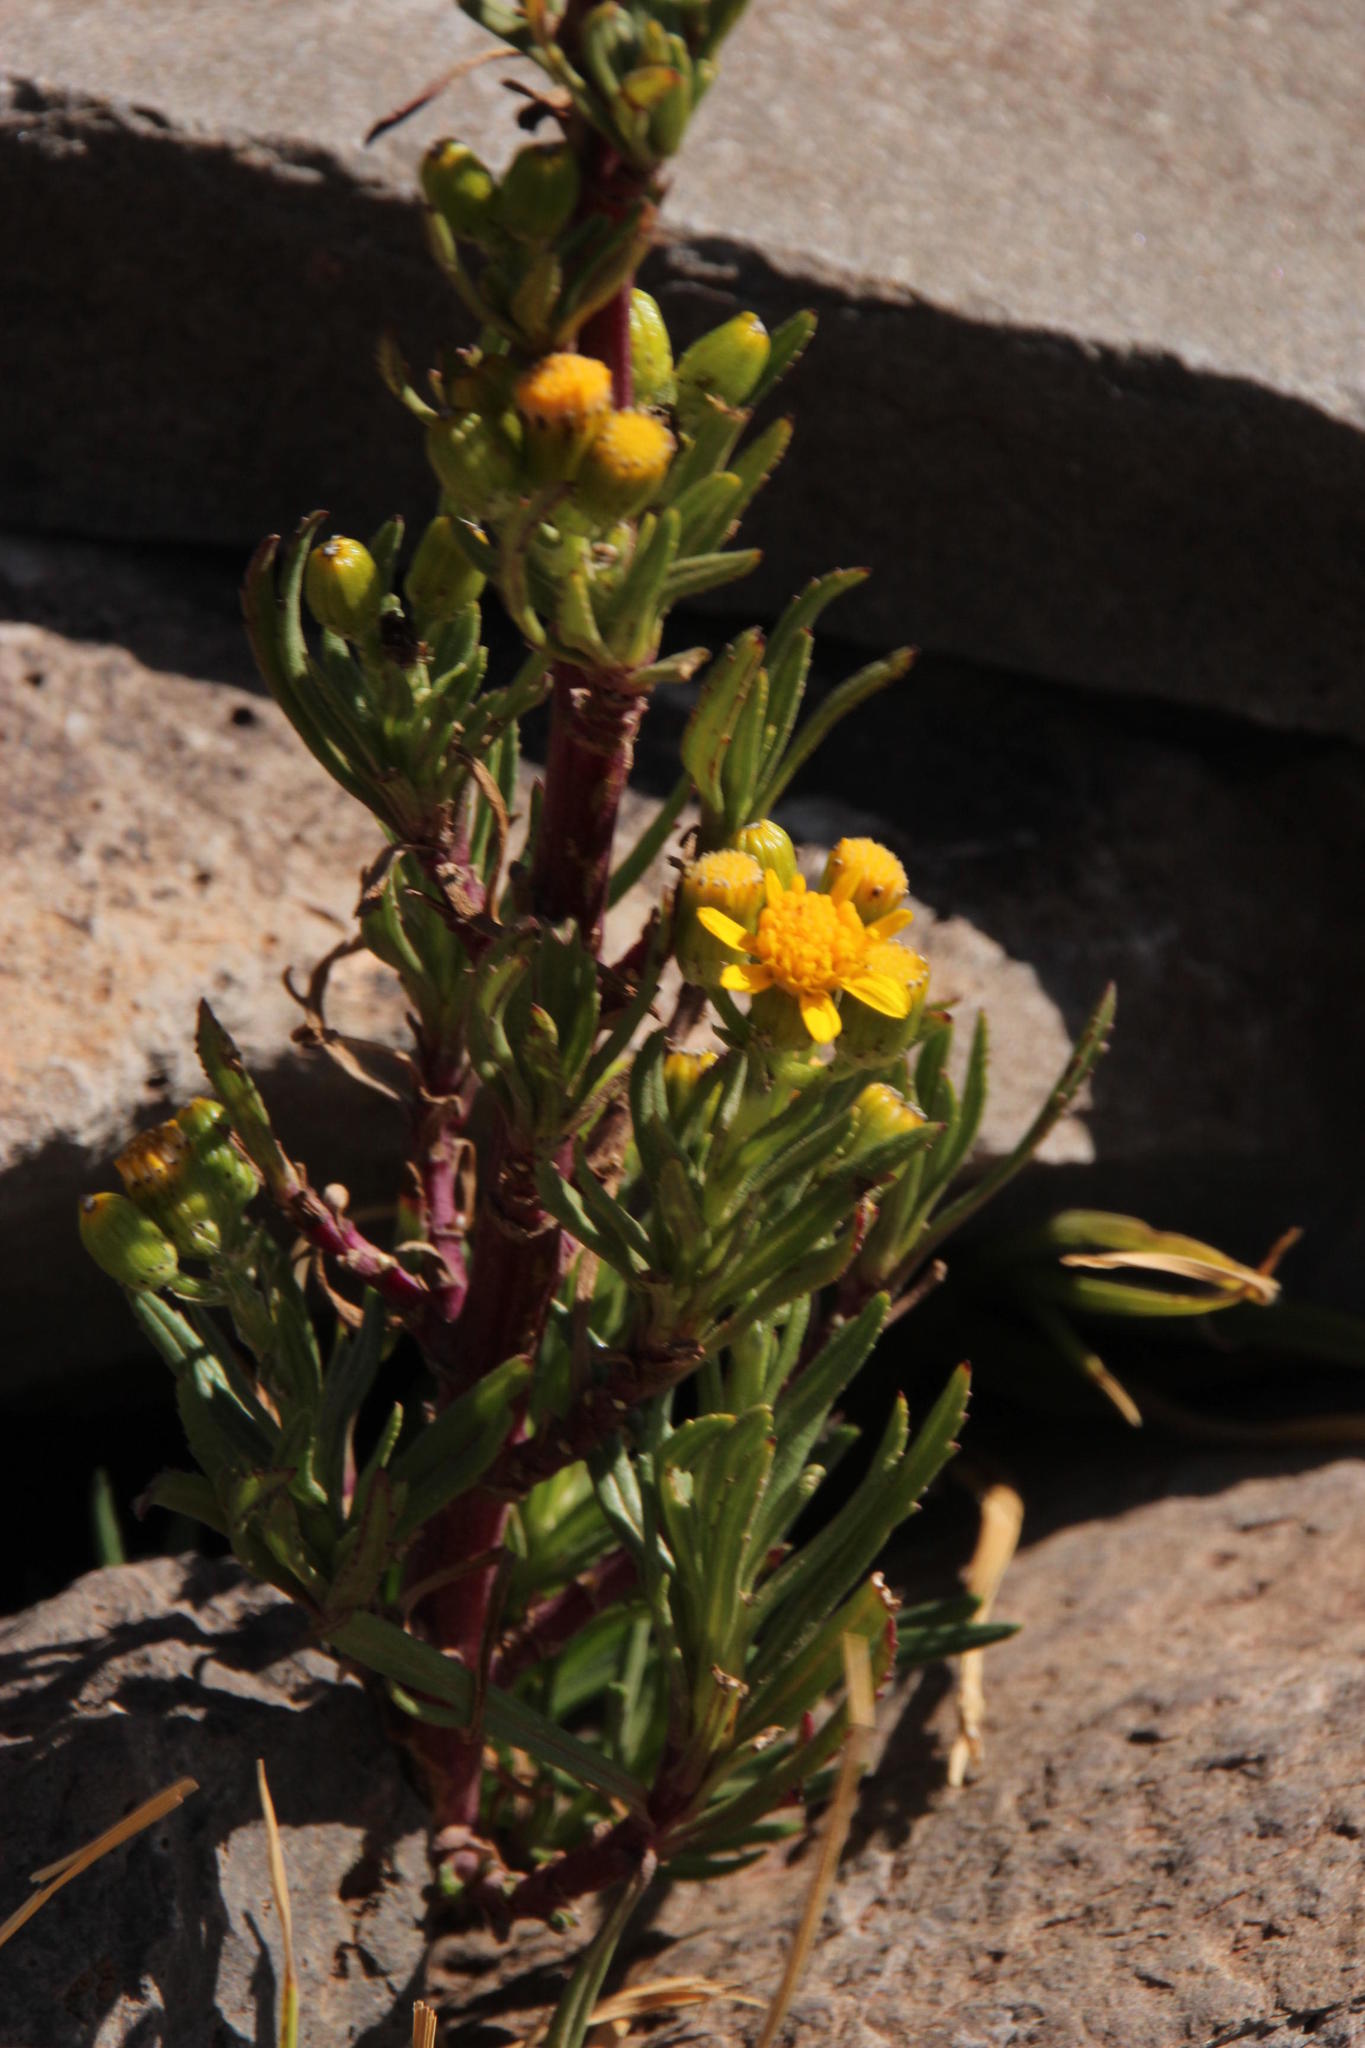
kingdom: Plantae
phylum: Tracheophyta
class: Magnoliopsida
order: Asterales
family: Asteraceae
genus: Senecio
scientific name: Senecio dryophyllus
